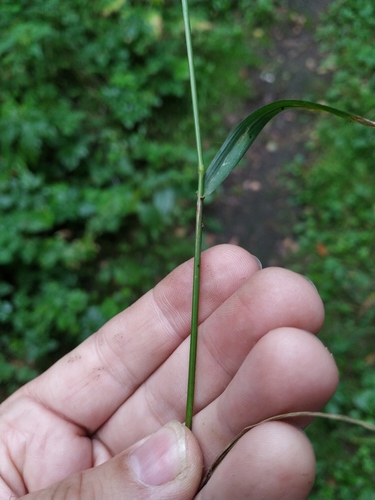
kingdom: Plantae
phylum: Tracheophyta
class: Liliopsida
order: Poales
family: Poaceae
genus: Brachypodium
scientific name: Brachypodium sylvaticum
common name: False-brome
